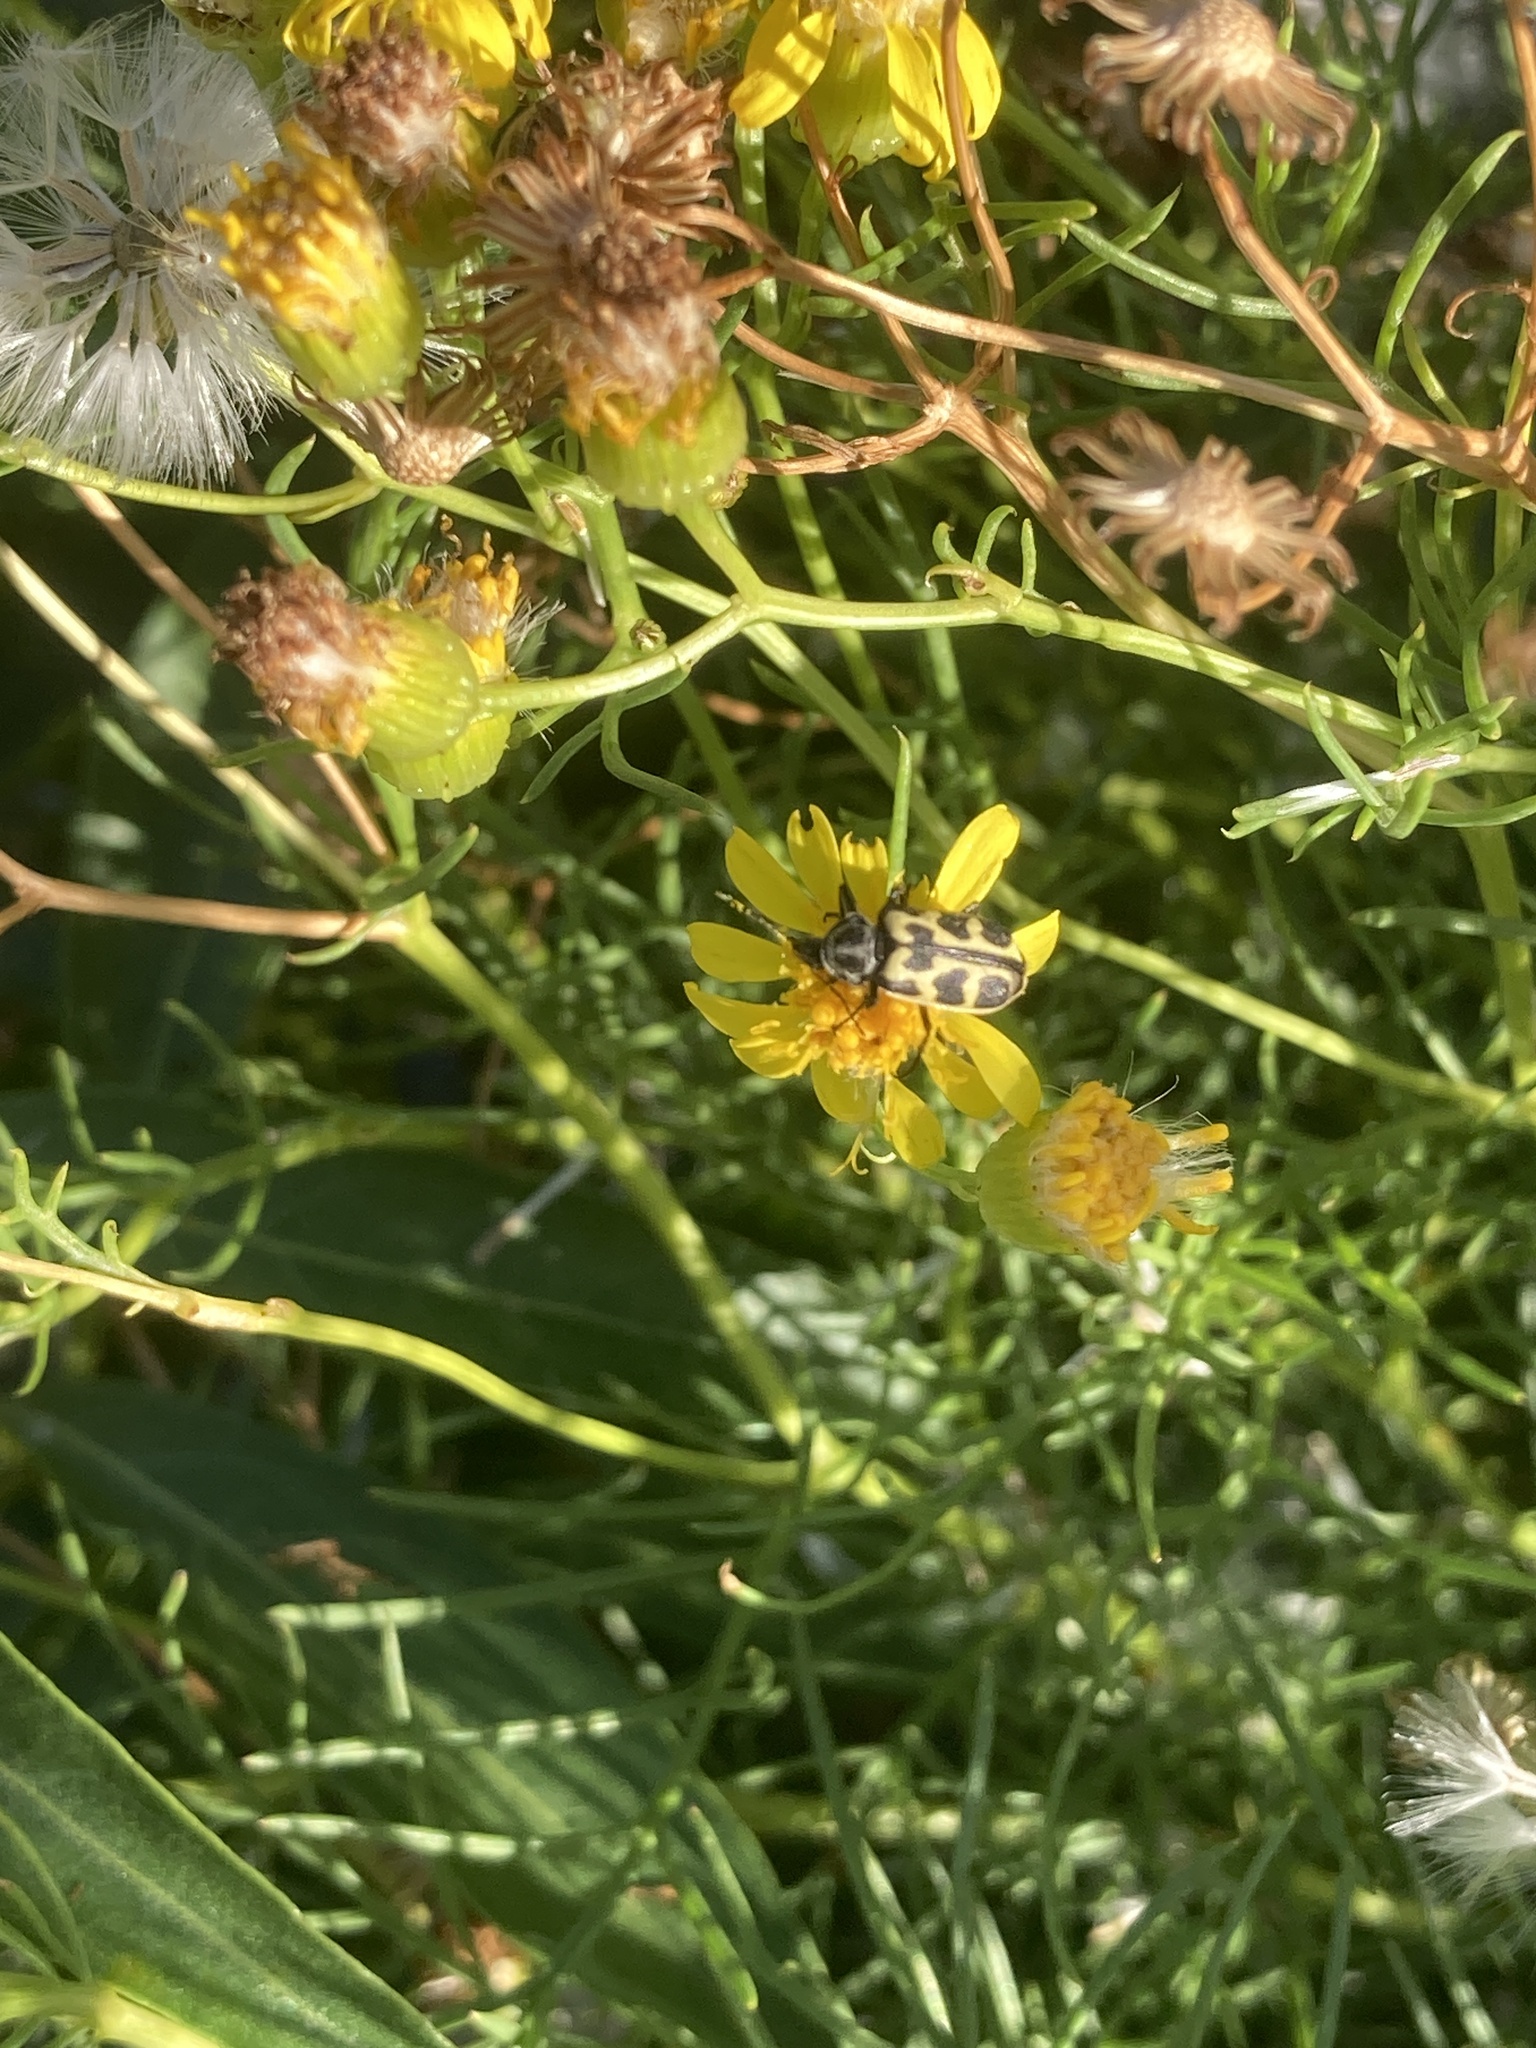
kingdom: Animalia
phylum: Arthropoda
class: Insecta
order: Coleoptera
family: Melyridae
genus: Astylus
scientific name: Astylus atromaculatus
